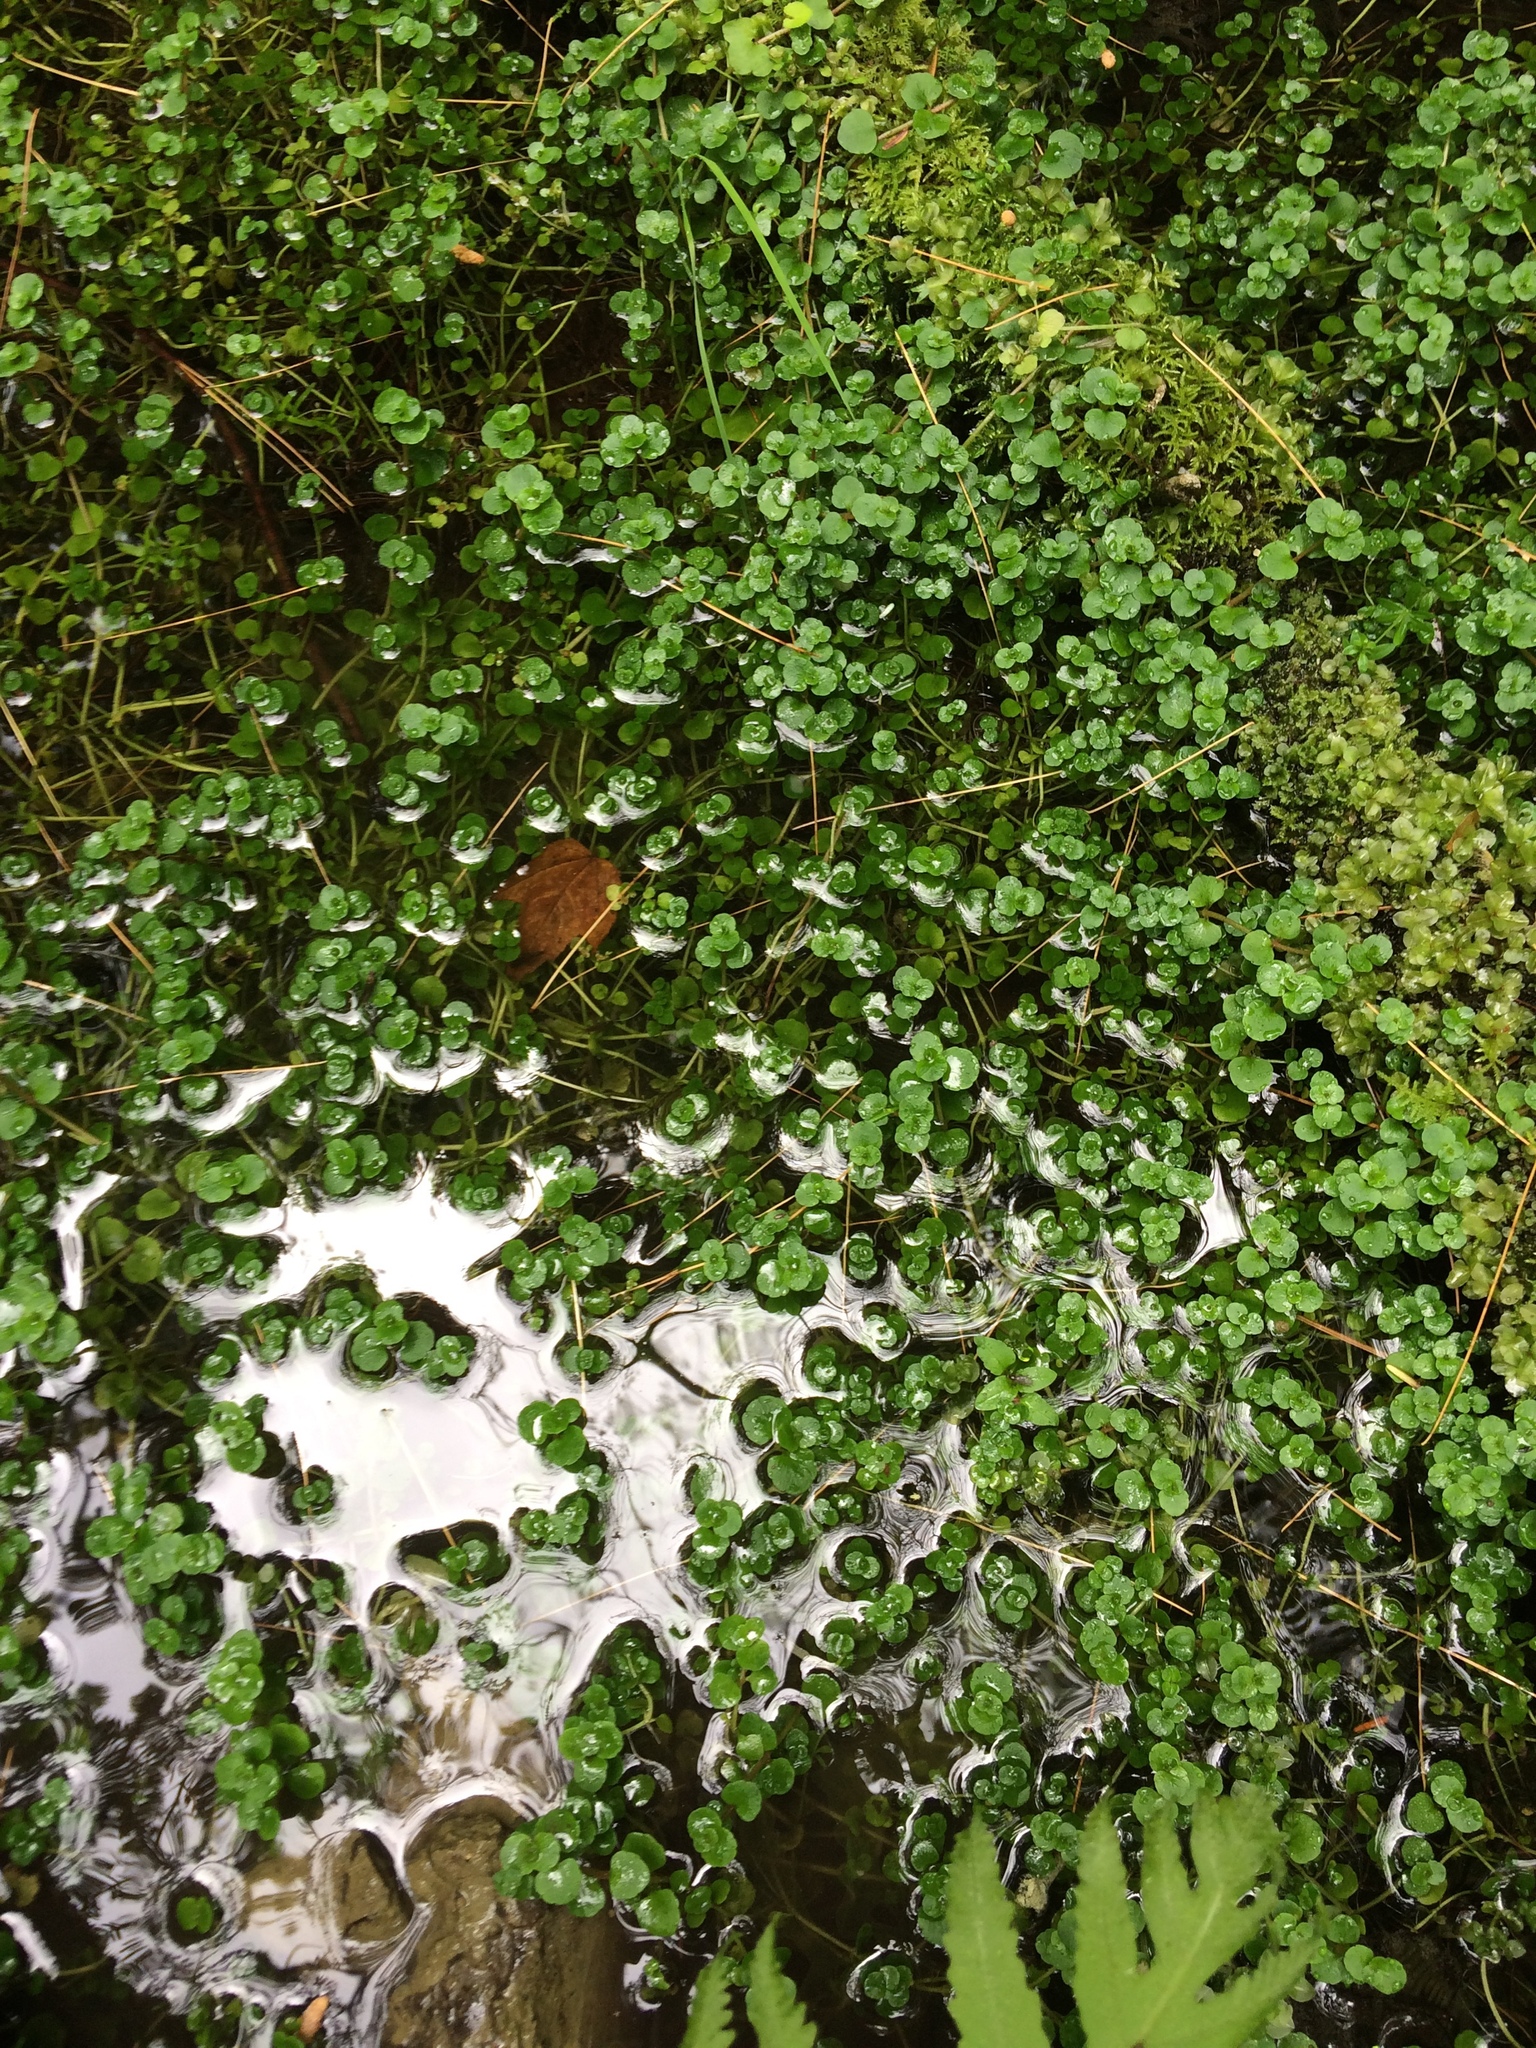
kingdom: Plantae
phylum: Tracheophyta
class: Magnoliopsida
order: Saxifragales
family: Saxifragaceae
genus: Chrysosplenium
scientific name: Chrysosplenium americanum
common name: American golden-saxifrage
